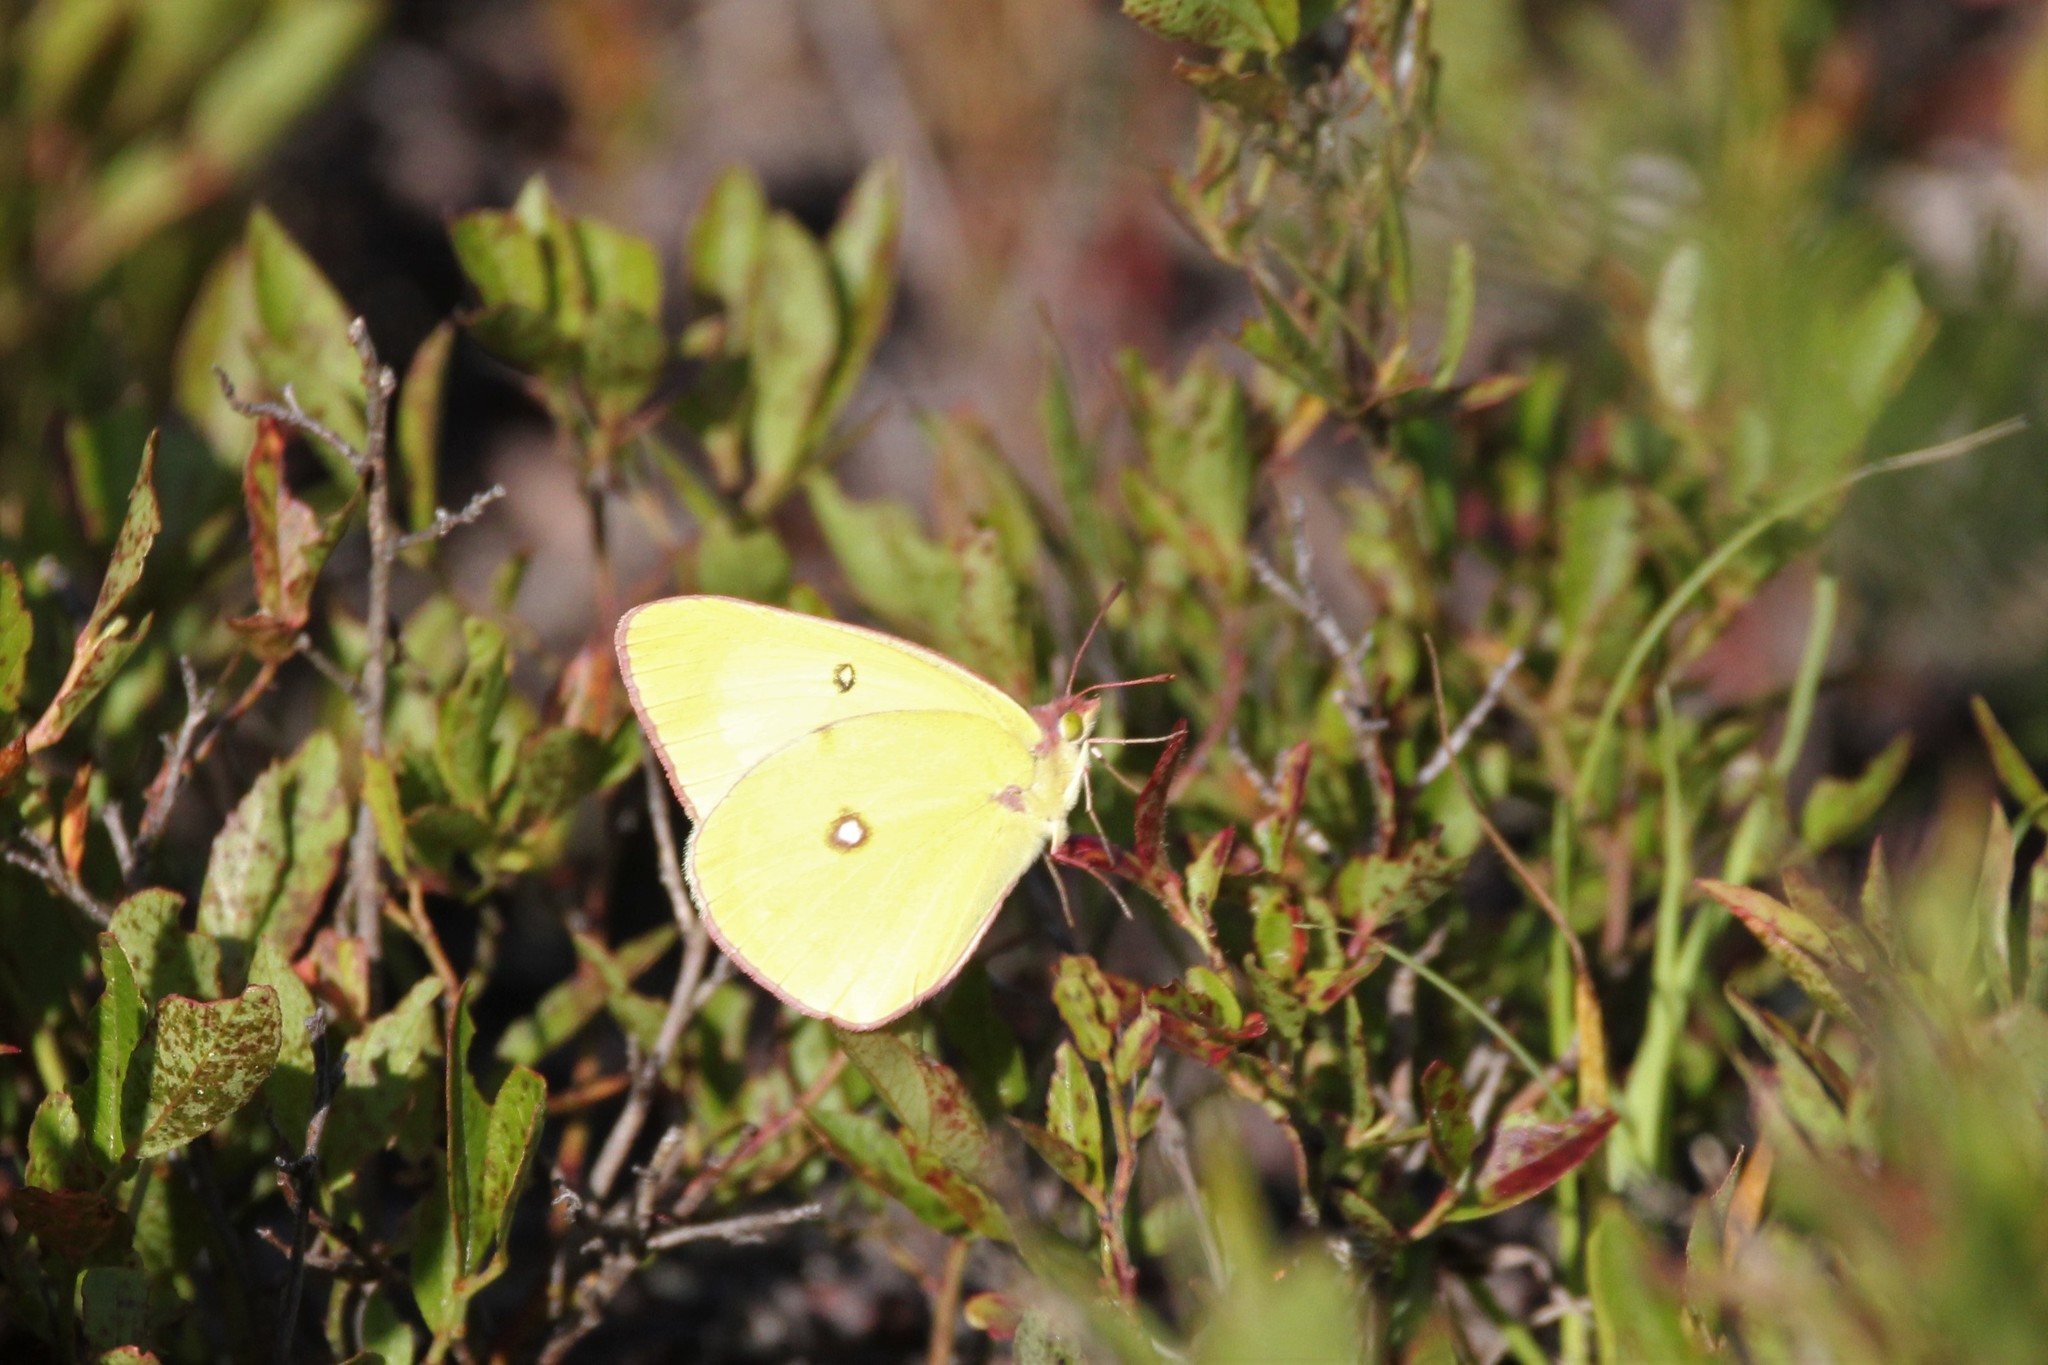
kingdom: Animalia
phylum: Arthropoda
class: Insecta
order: Lepidoptera
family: Pieridae
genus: Colias
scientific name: Colias interior
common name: Pink-edged sulphur
